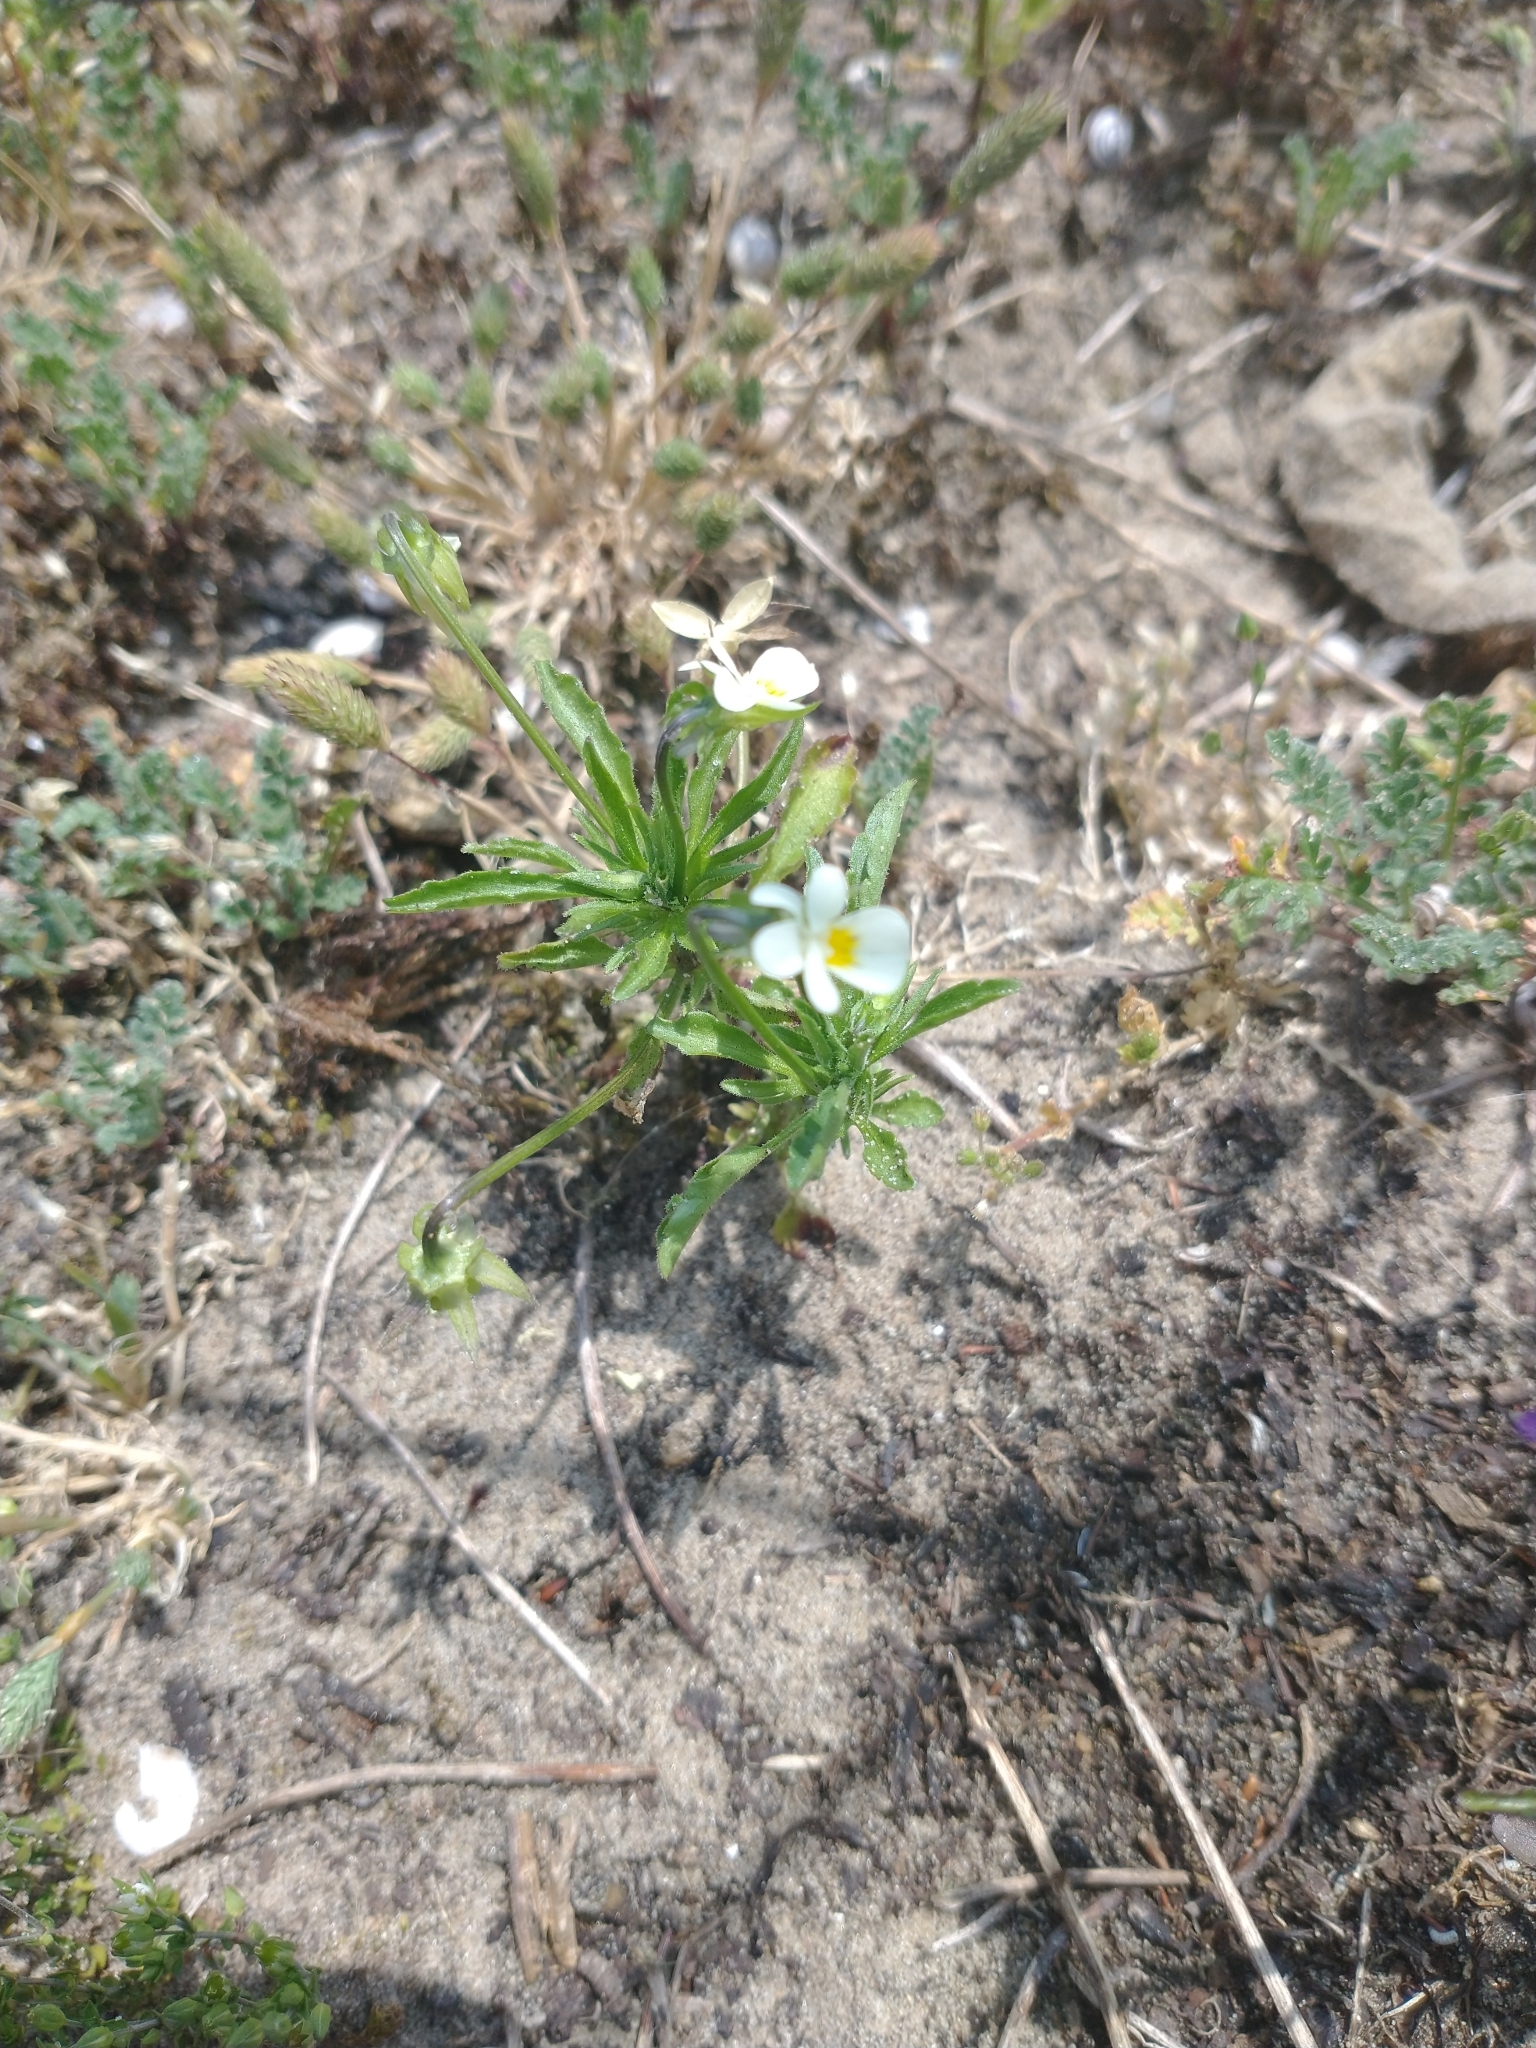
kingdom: Plantae
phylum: Tracheophyta
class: Magnoliopsida
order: Malpighiales
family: Violaceae
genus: Viola
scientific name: Viola arvensis
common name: Field pansy
